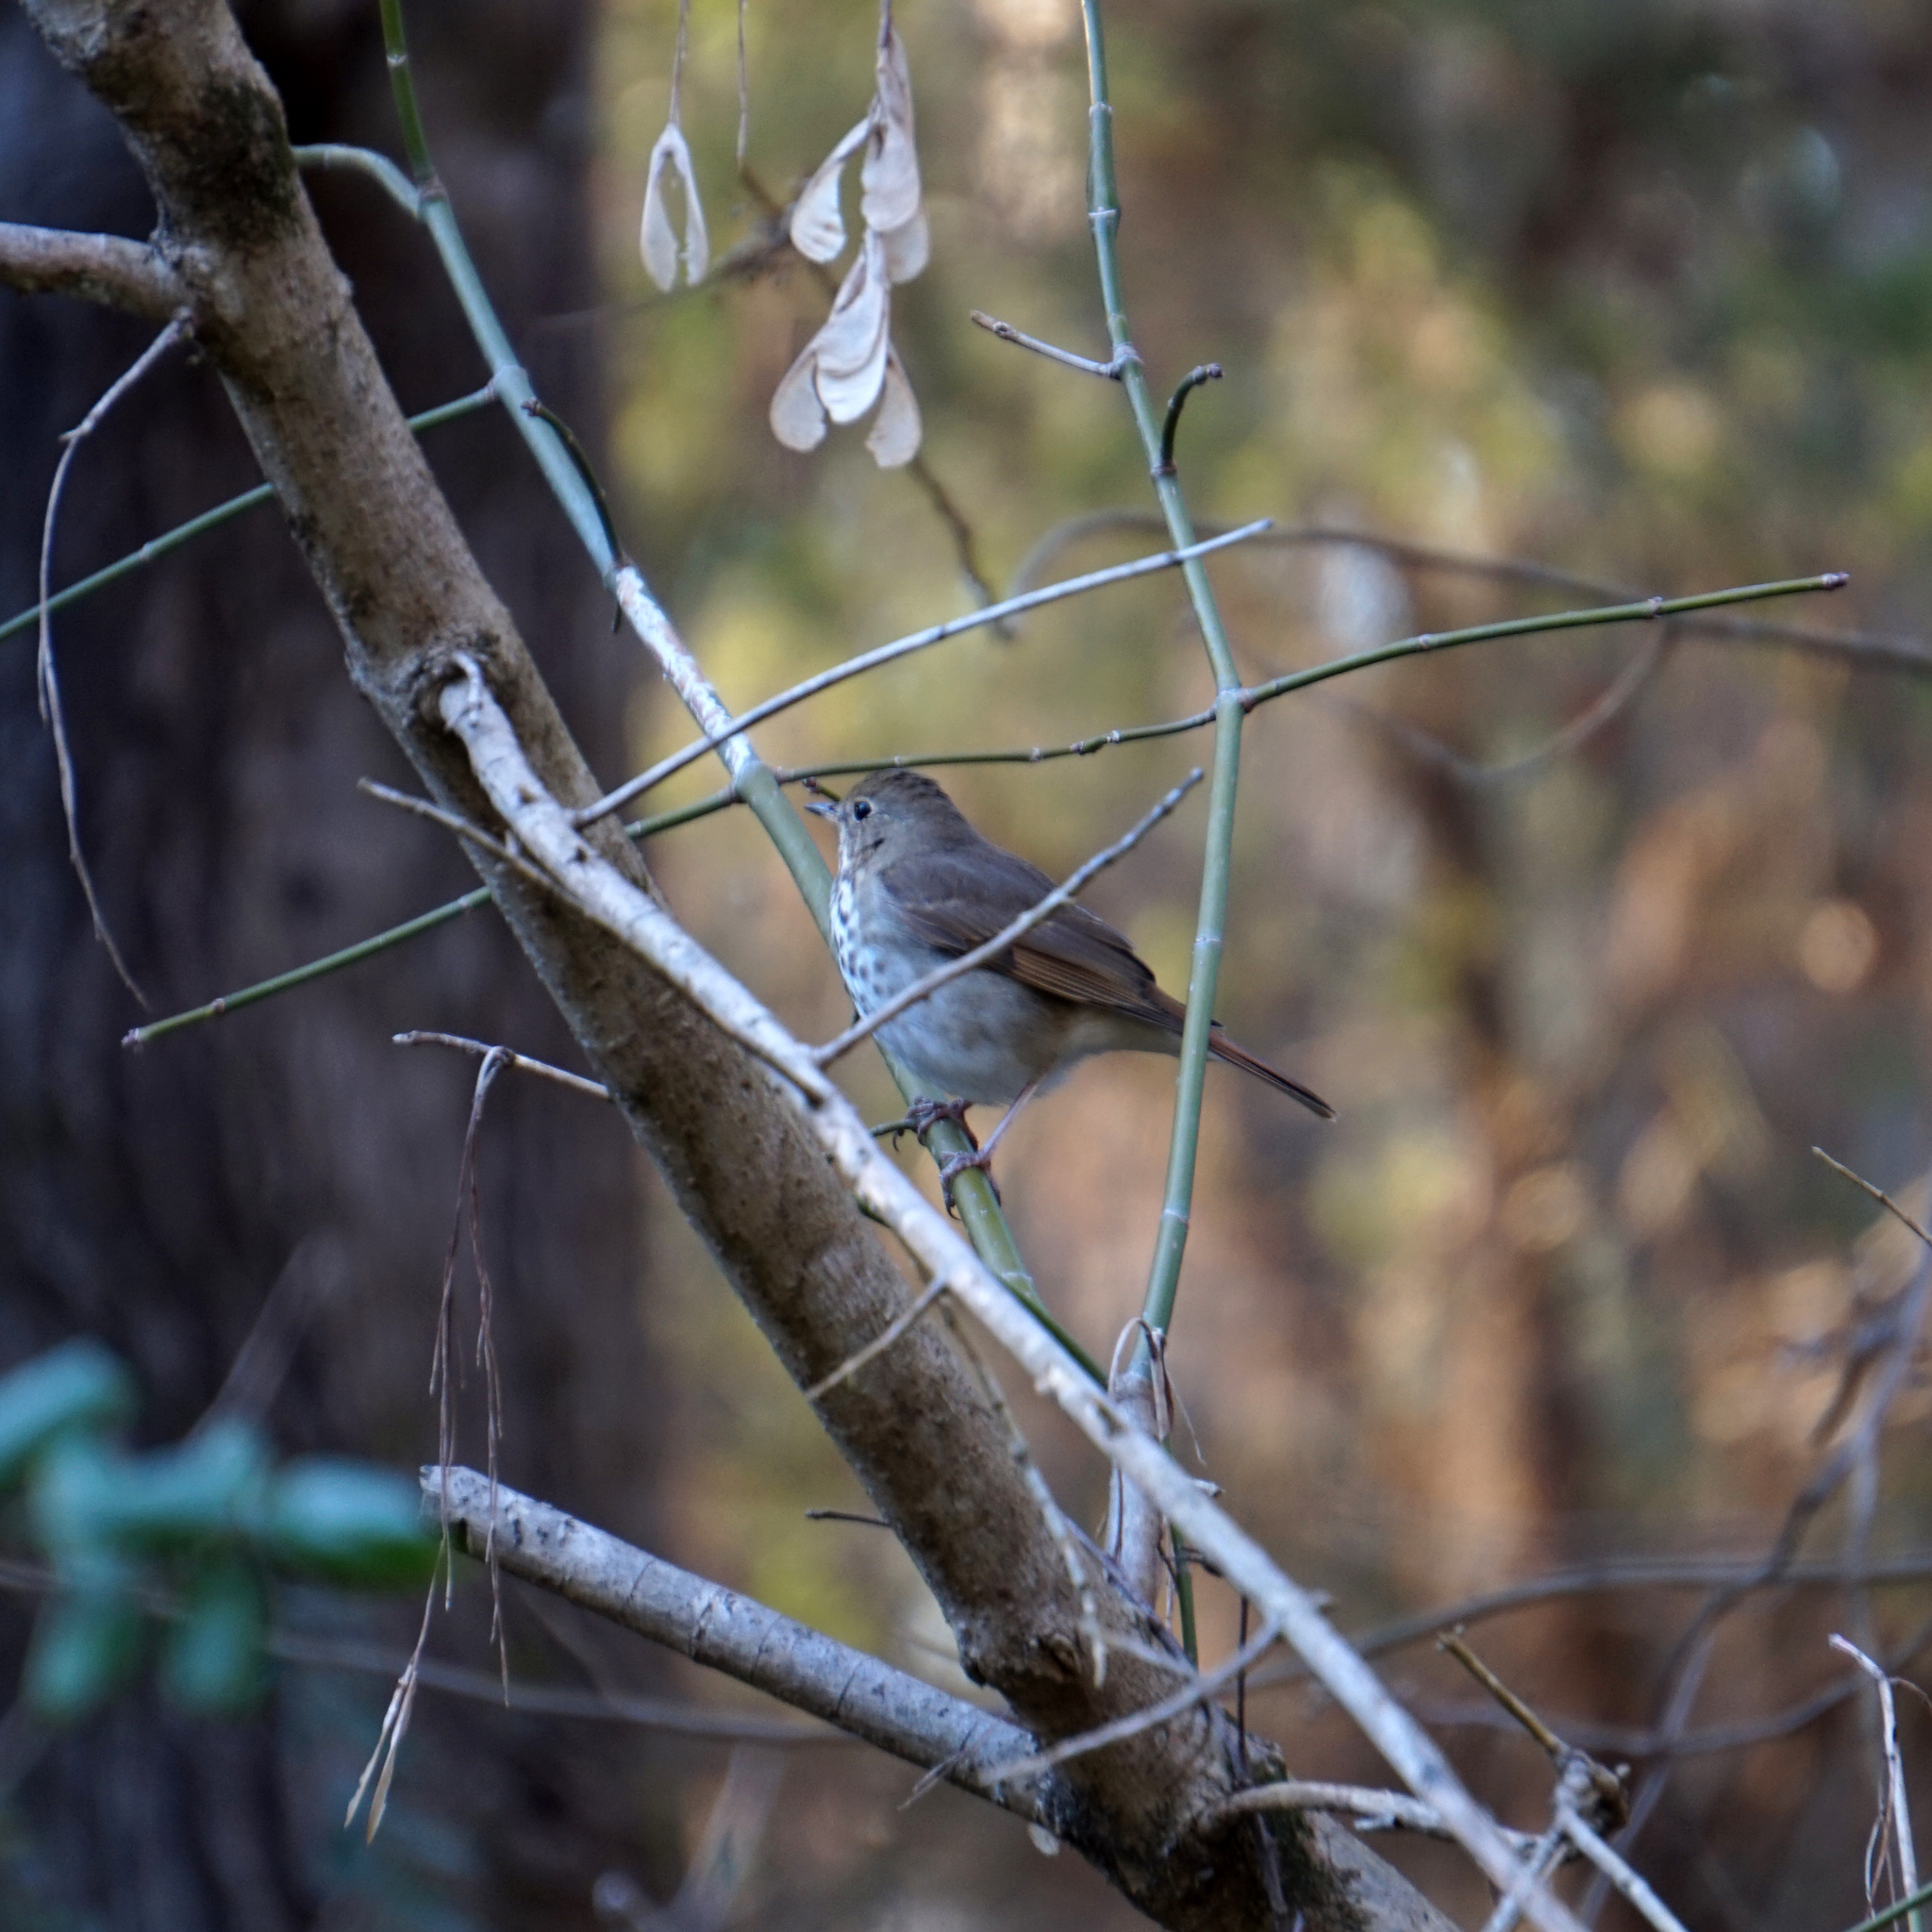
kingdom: Animalia
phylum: Chordata
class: Aves
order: Passeriformes
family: Turdidae
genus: Catharus
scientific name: Catharus guttatus
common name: Hermit thrush
